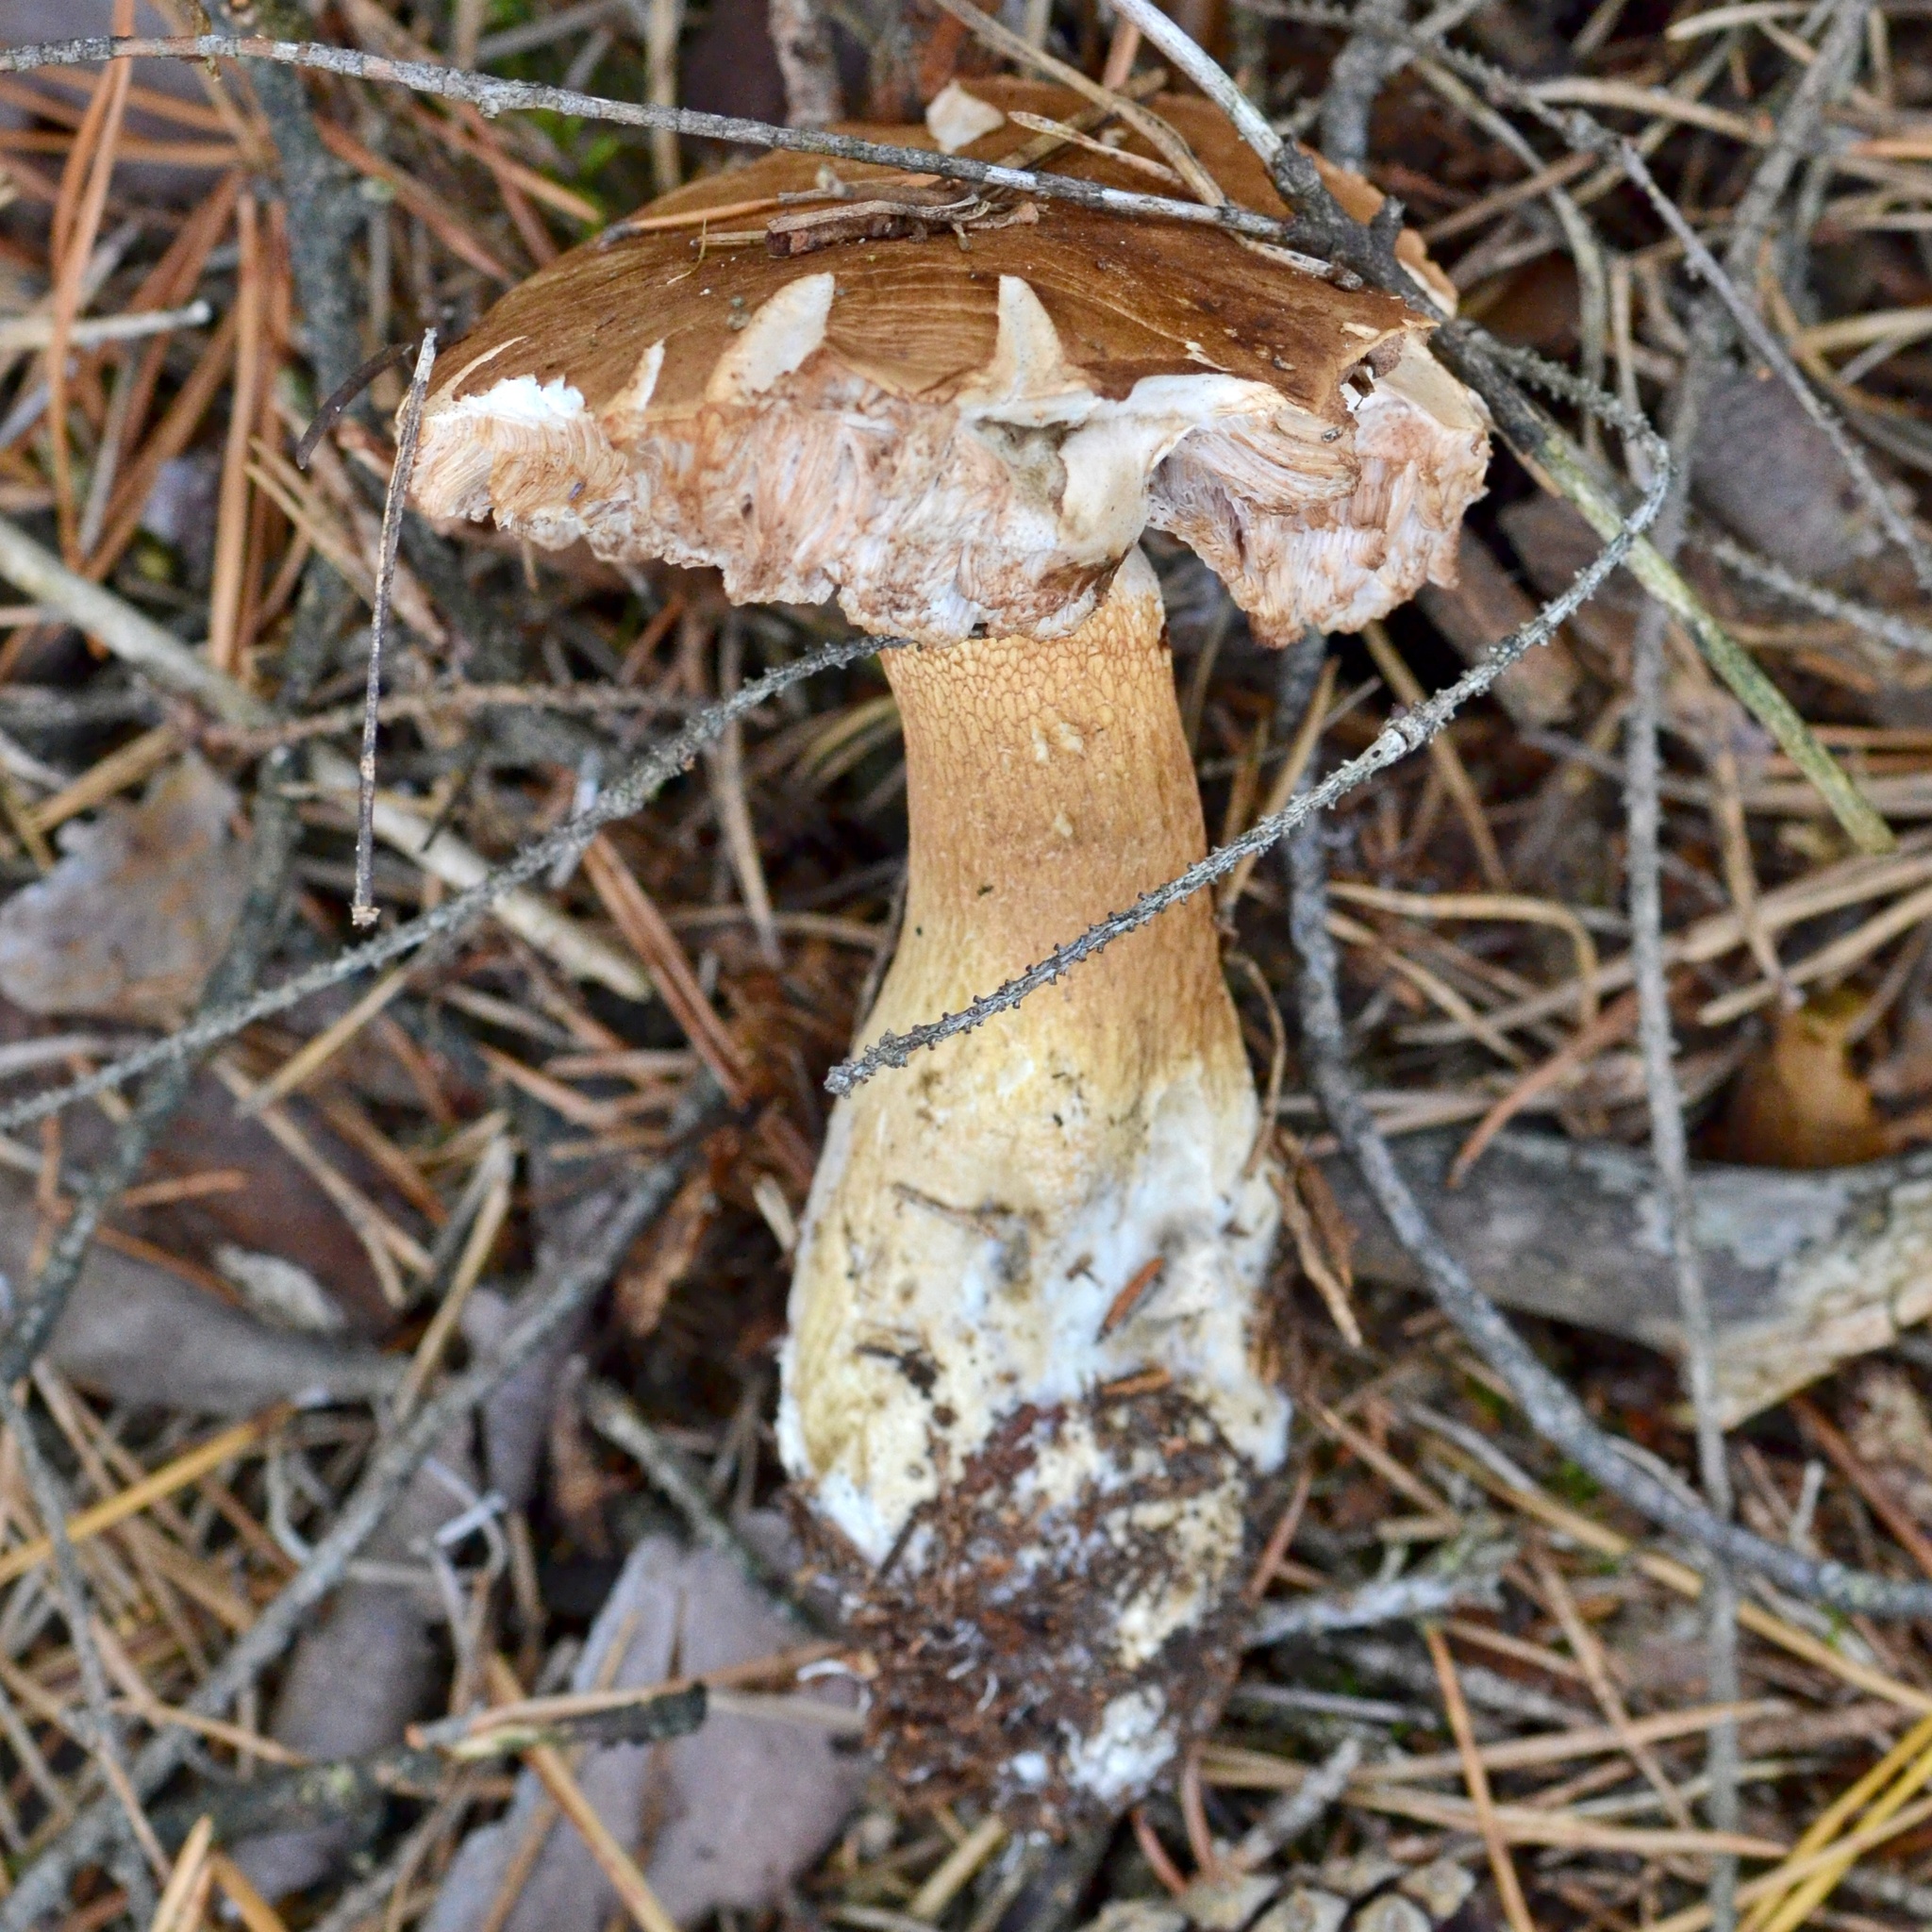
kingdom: Fungi
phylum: Basidiomycota
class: Agaricomycetes
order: Boletales
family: Boletaceae
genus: Tylopilus
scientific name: Tylopilus felleus
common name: Bitter bolete
